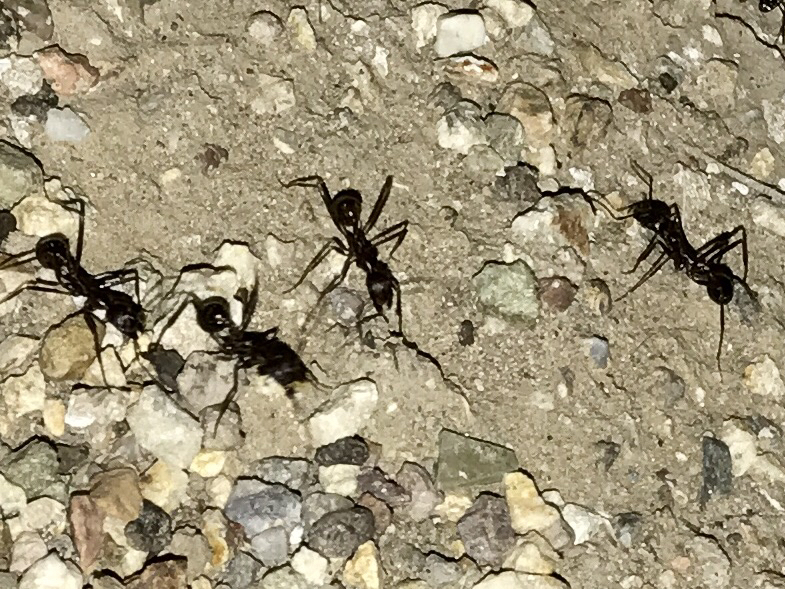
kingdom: Animalia
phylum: Arthropoda
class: Insecta
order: Hymenoptera
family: Formicidae
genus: Novomessor
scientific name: Novomessor cockerelli
